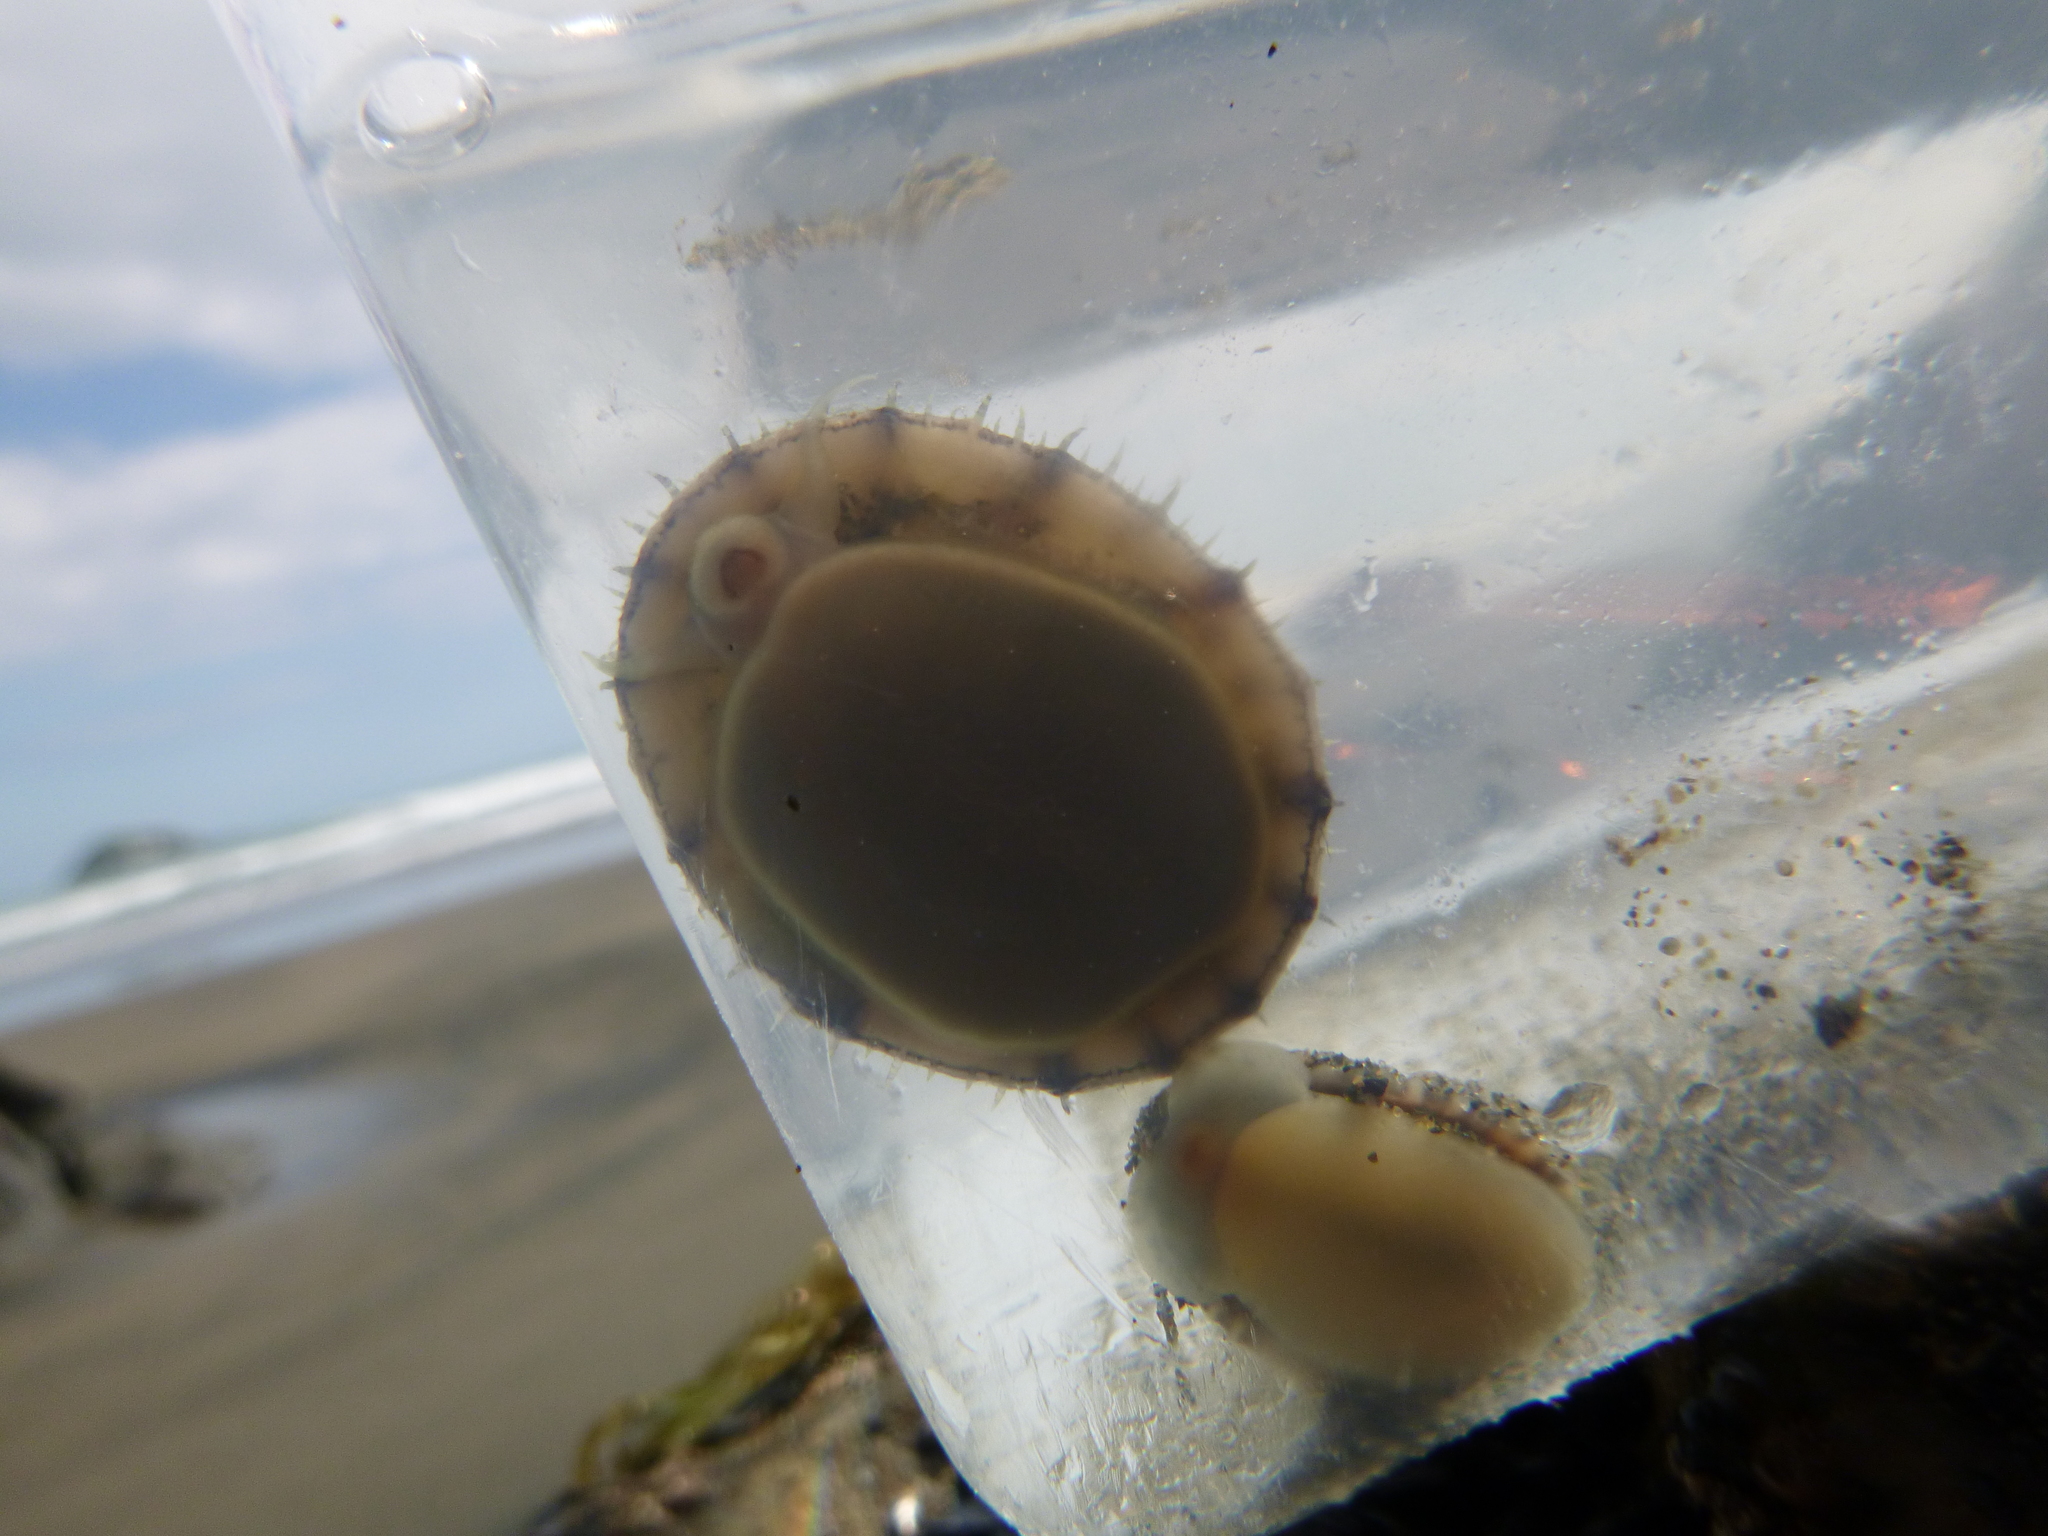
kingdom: Animalia
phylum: Mollusca
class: Gastropoda
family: Nacellidae
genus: Cellana
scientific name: Cellana radians
